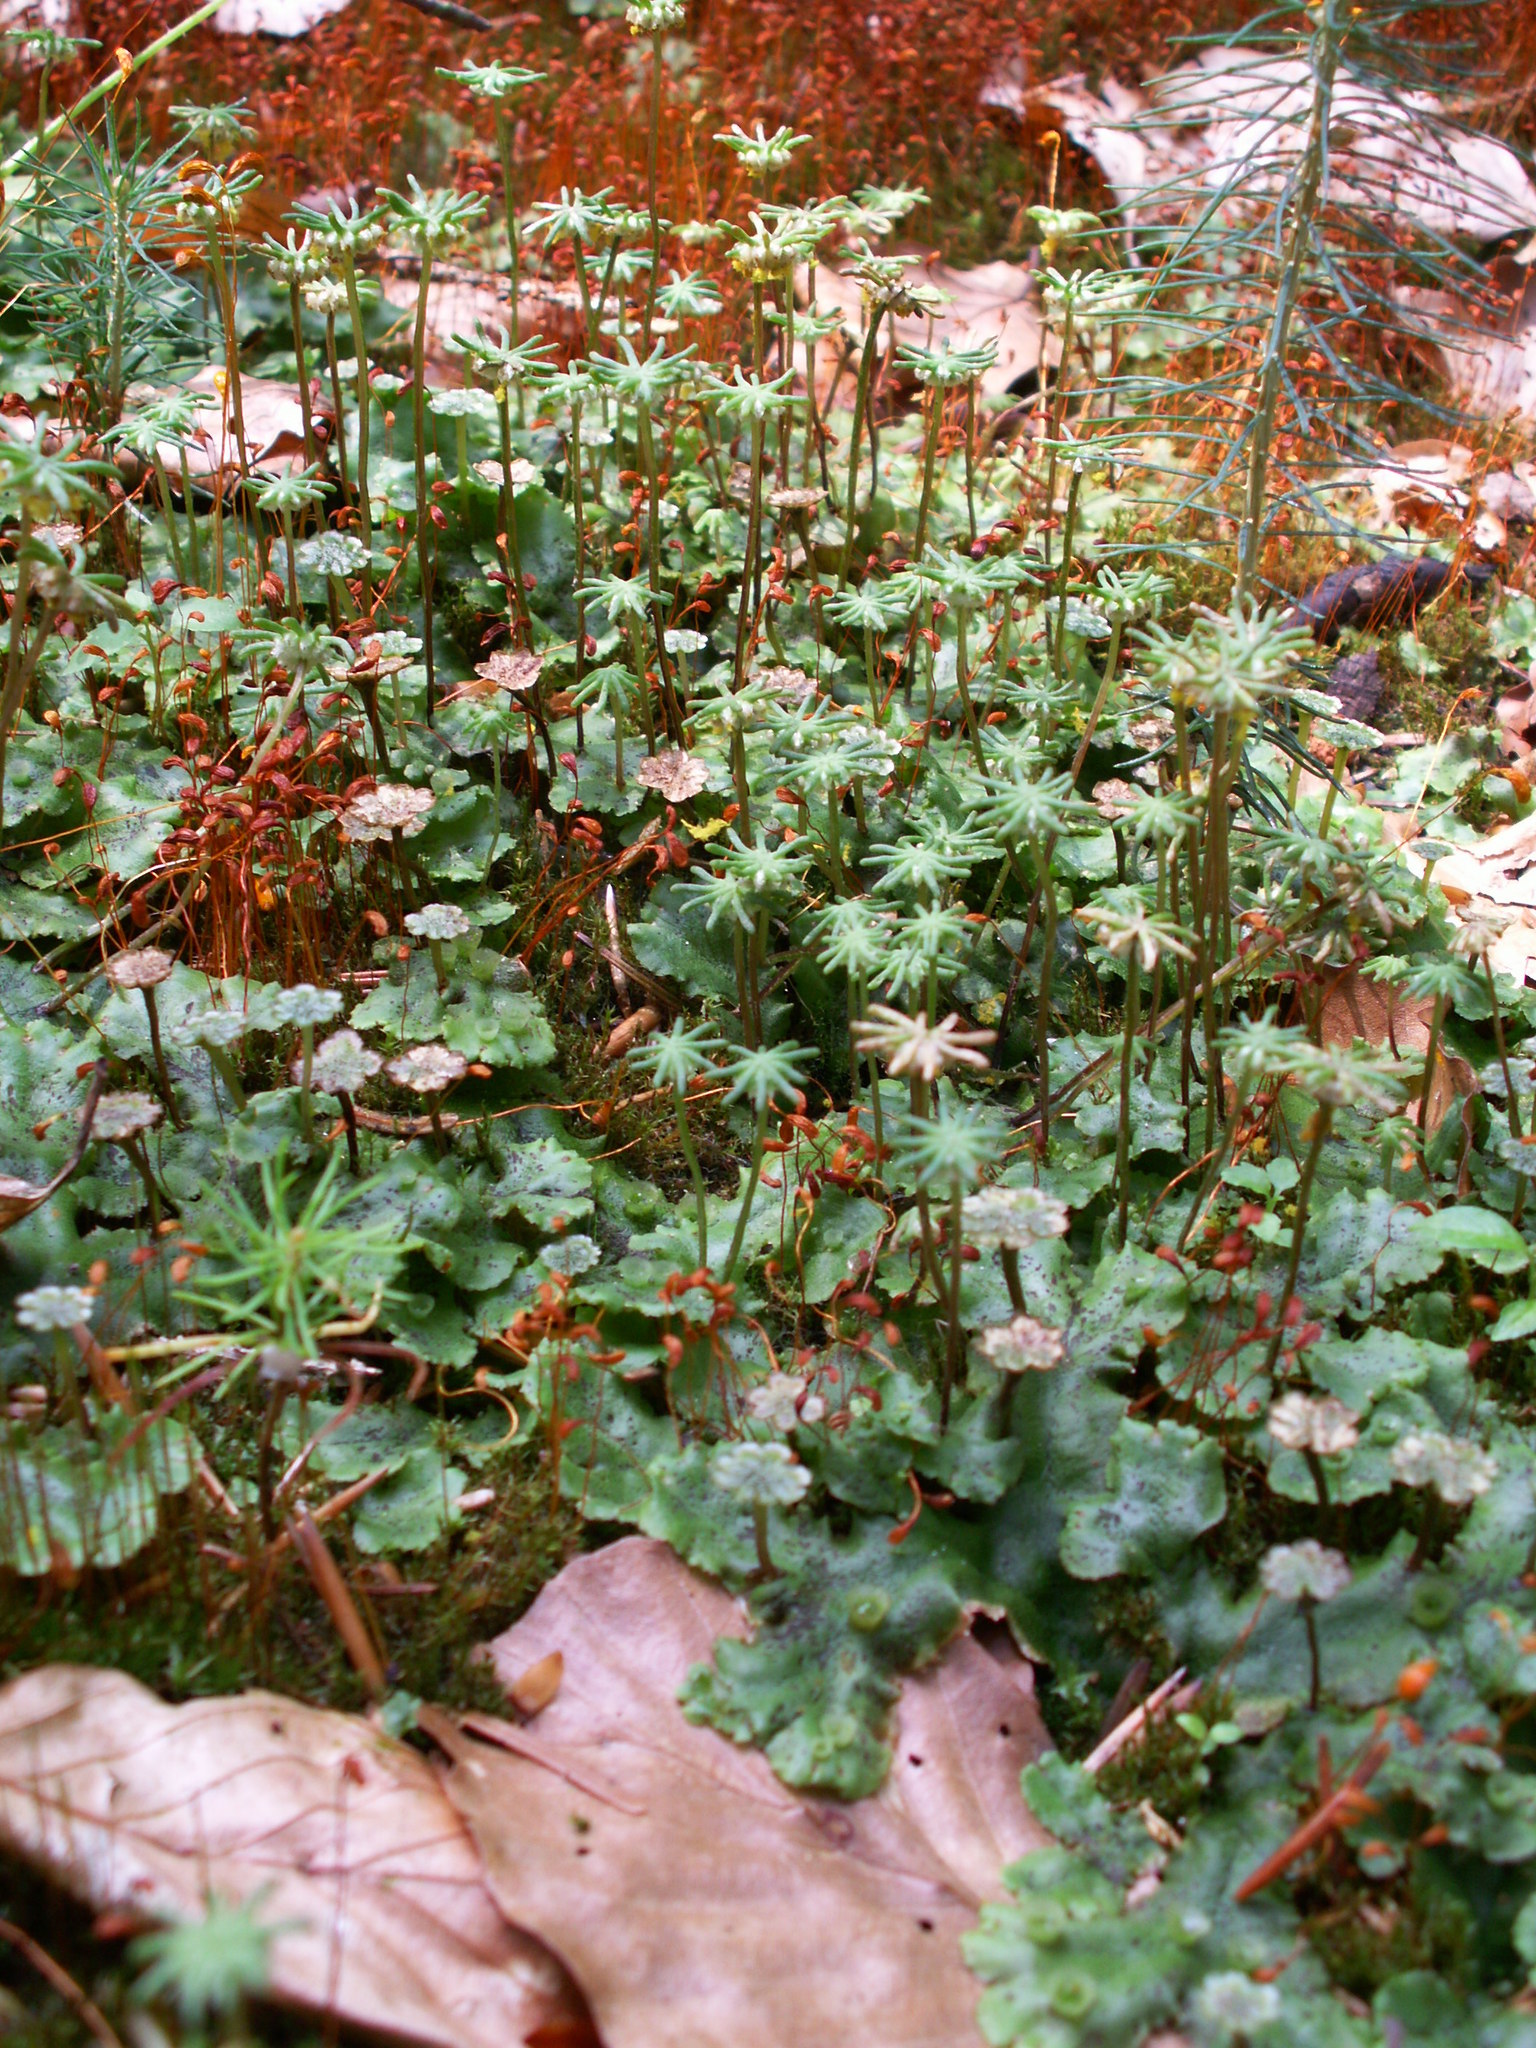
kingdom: Plantae
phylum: Marchantiophyta
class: Marchantiopsida
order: Marchantiales
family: Marchantiaceae
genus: Marchantia
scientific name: Marchantia polymorpha
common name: Common liverwort
